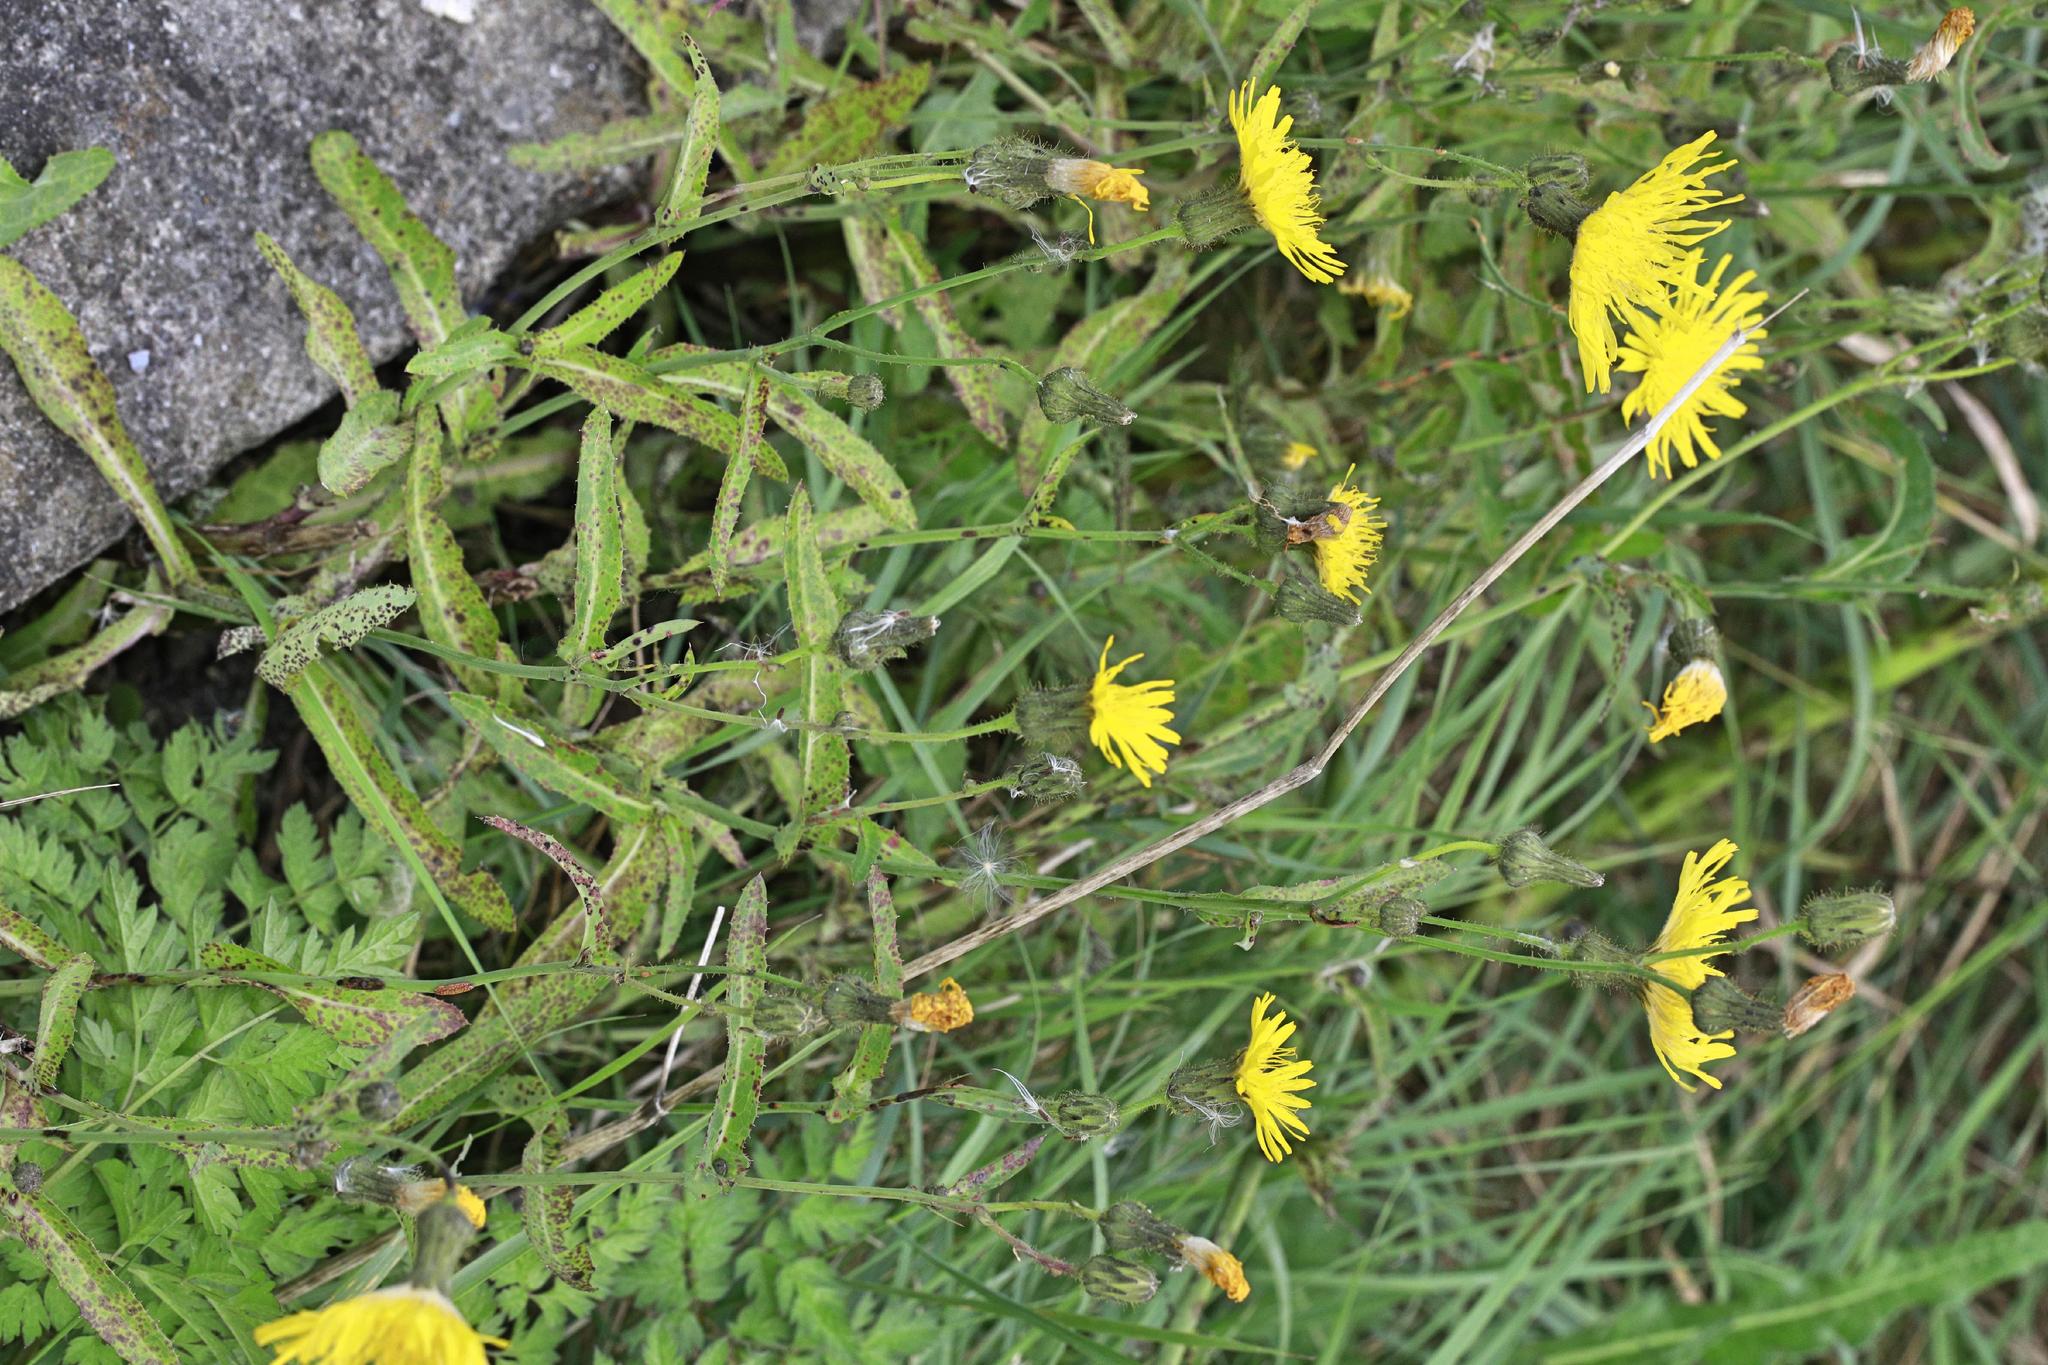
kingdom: Plantae
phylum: Tracheophyta
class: Magnoliopsida
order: Asterales
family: Asteraceae
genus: Sonchus
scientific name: Sonchus arvensis
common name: Perennial sow-thistle
